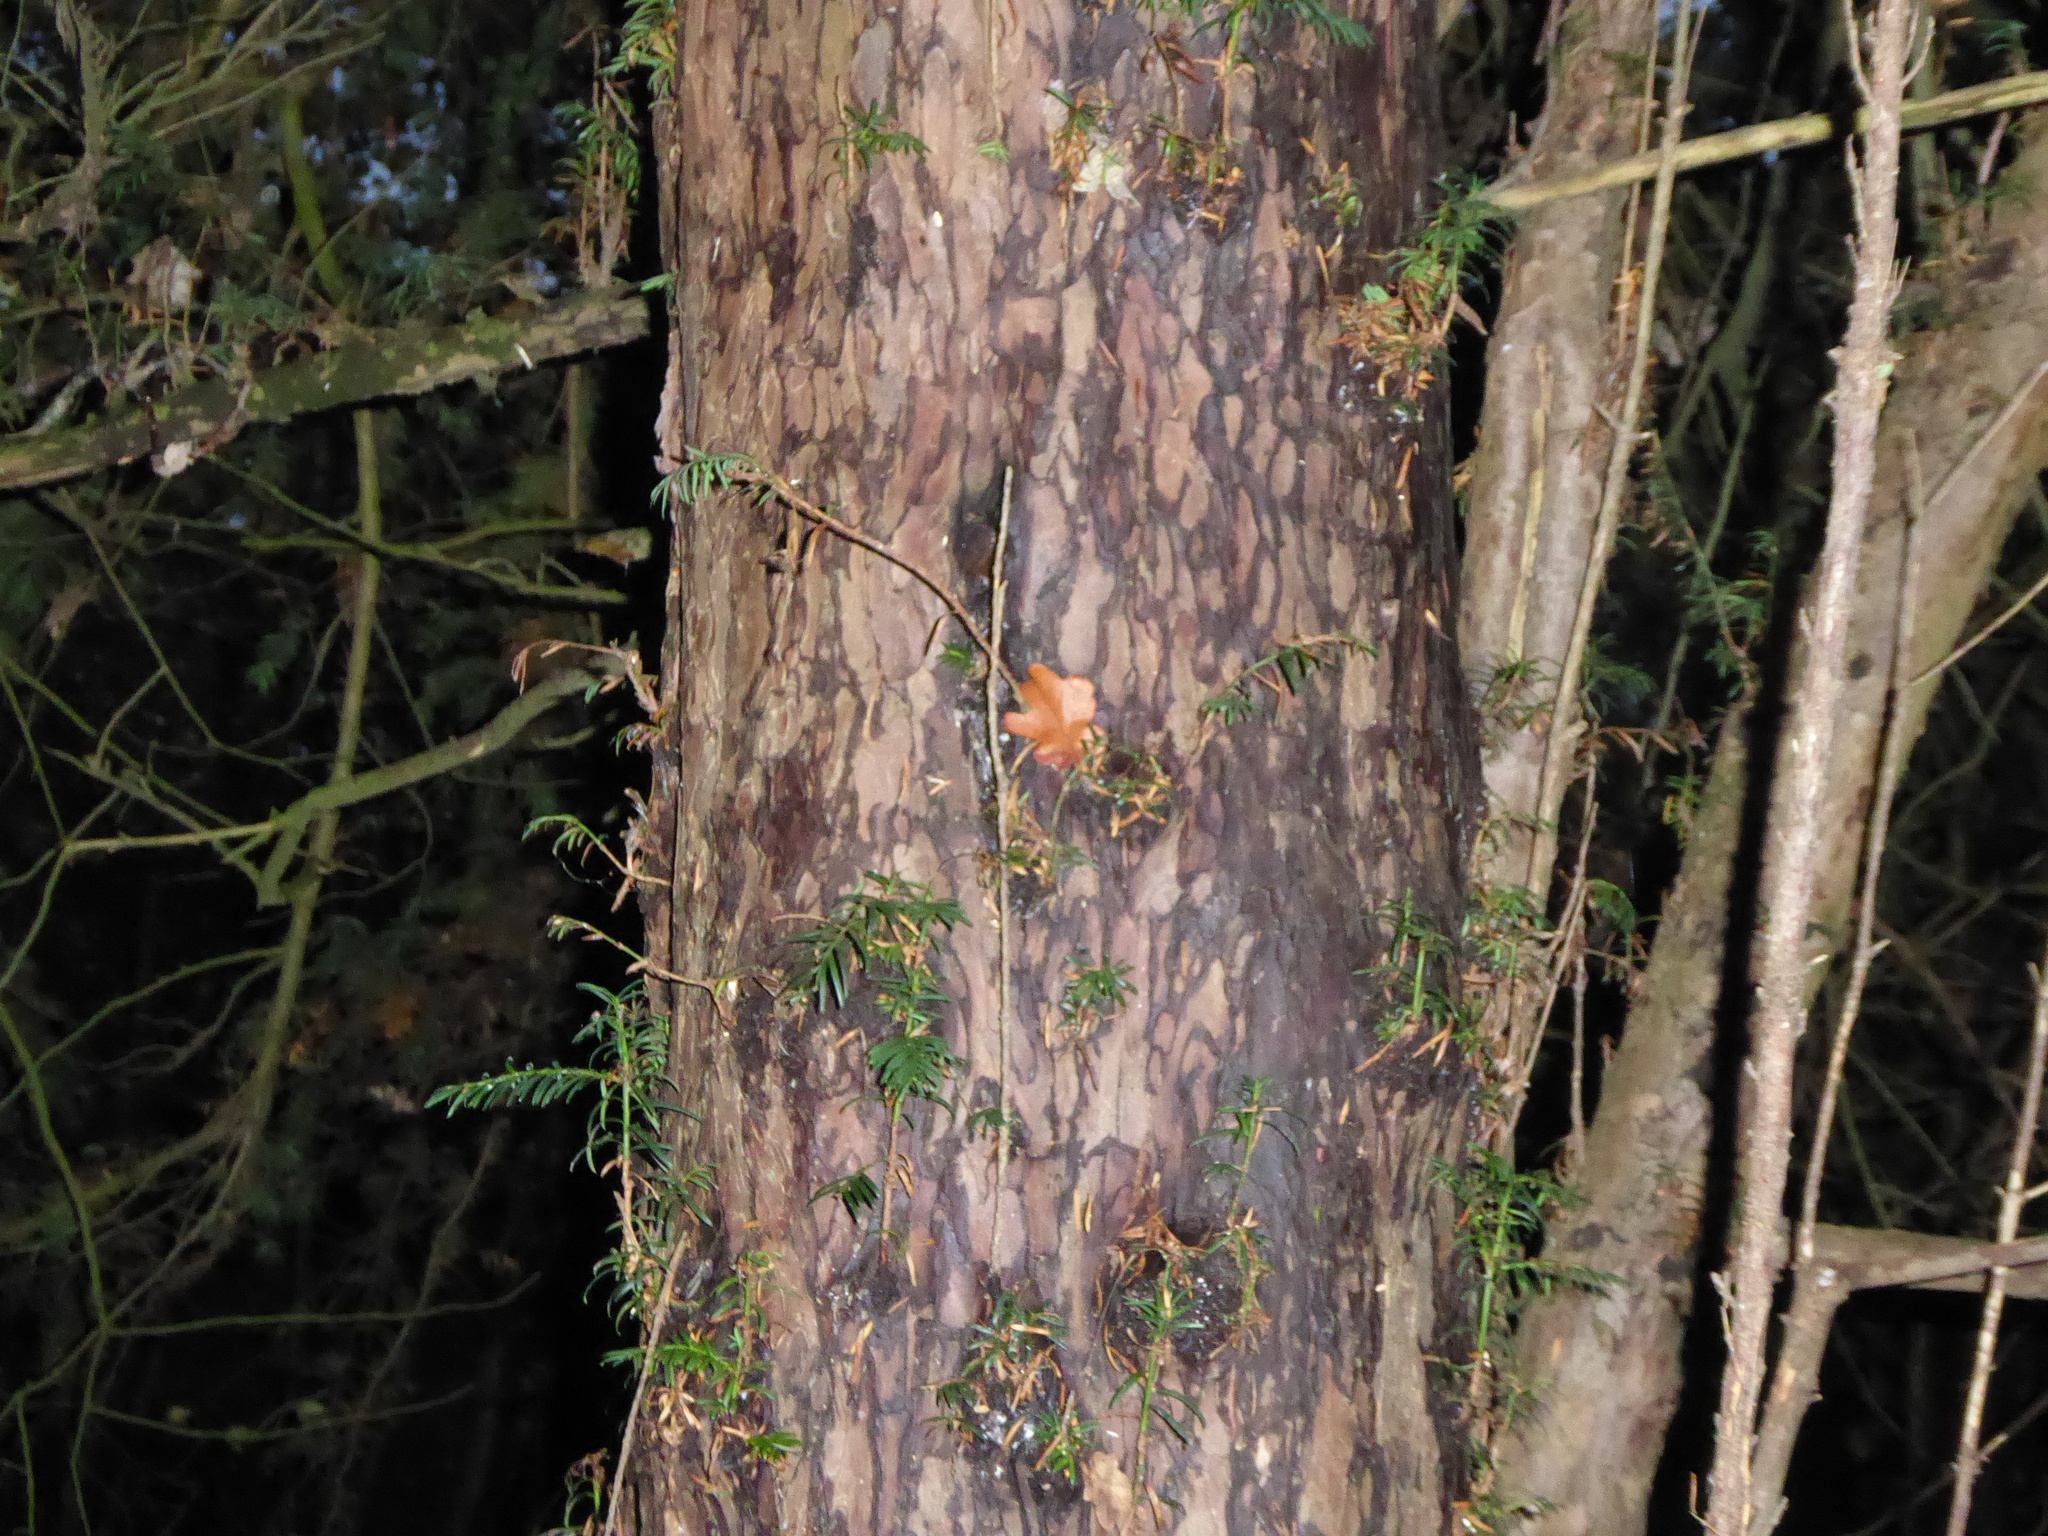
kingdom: Plantae
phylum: Tracheophyta
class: Pinopsida
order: Pinales
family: Taxaceae
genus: Taxus
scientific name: Taxus baccata
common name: Yew
